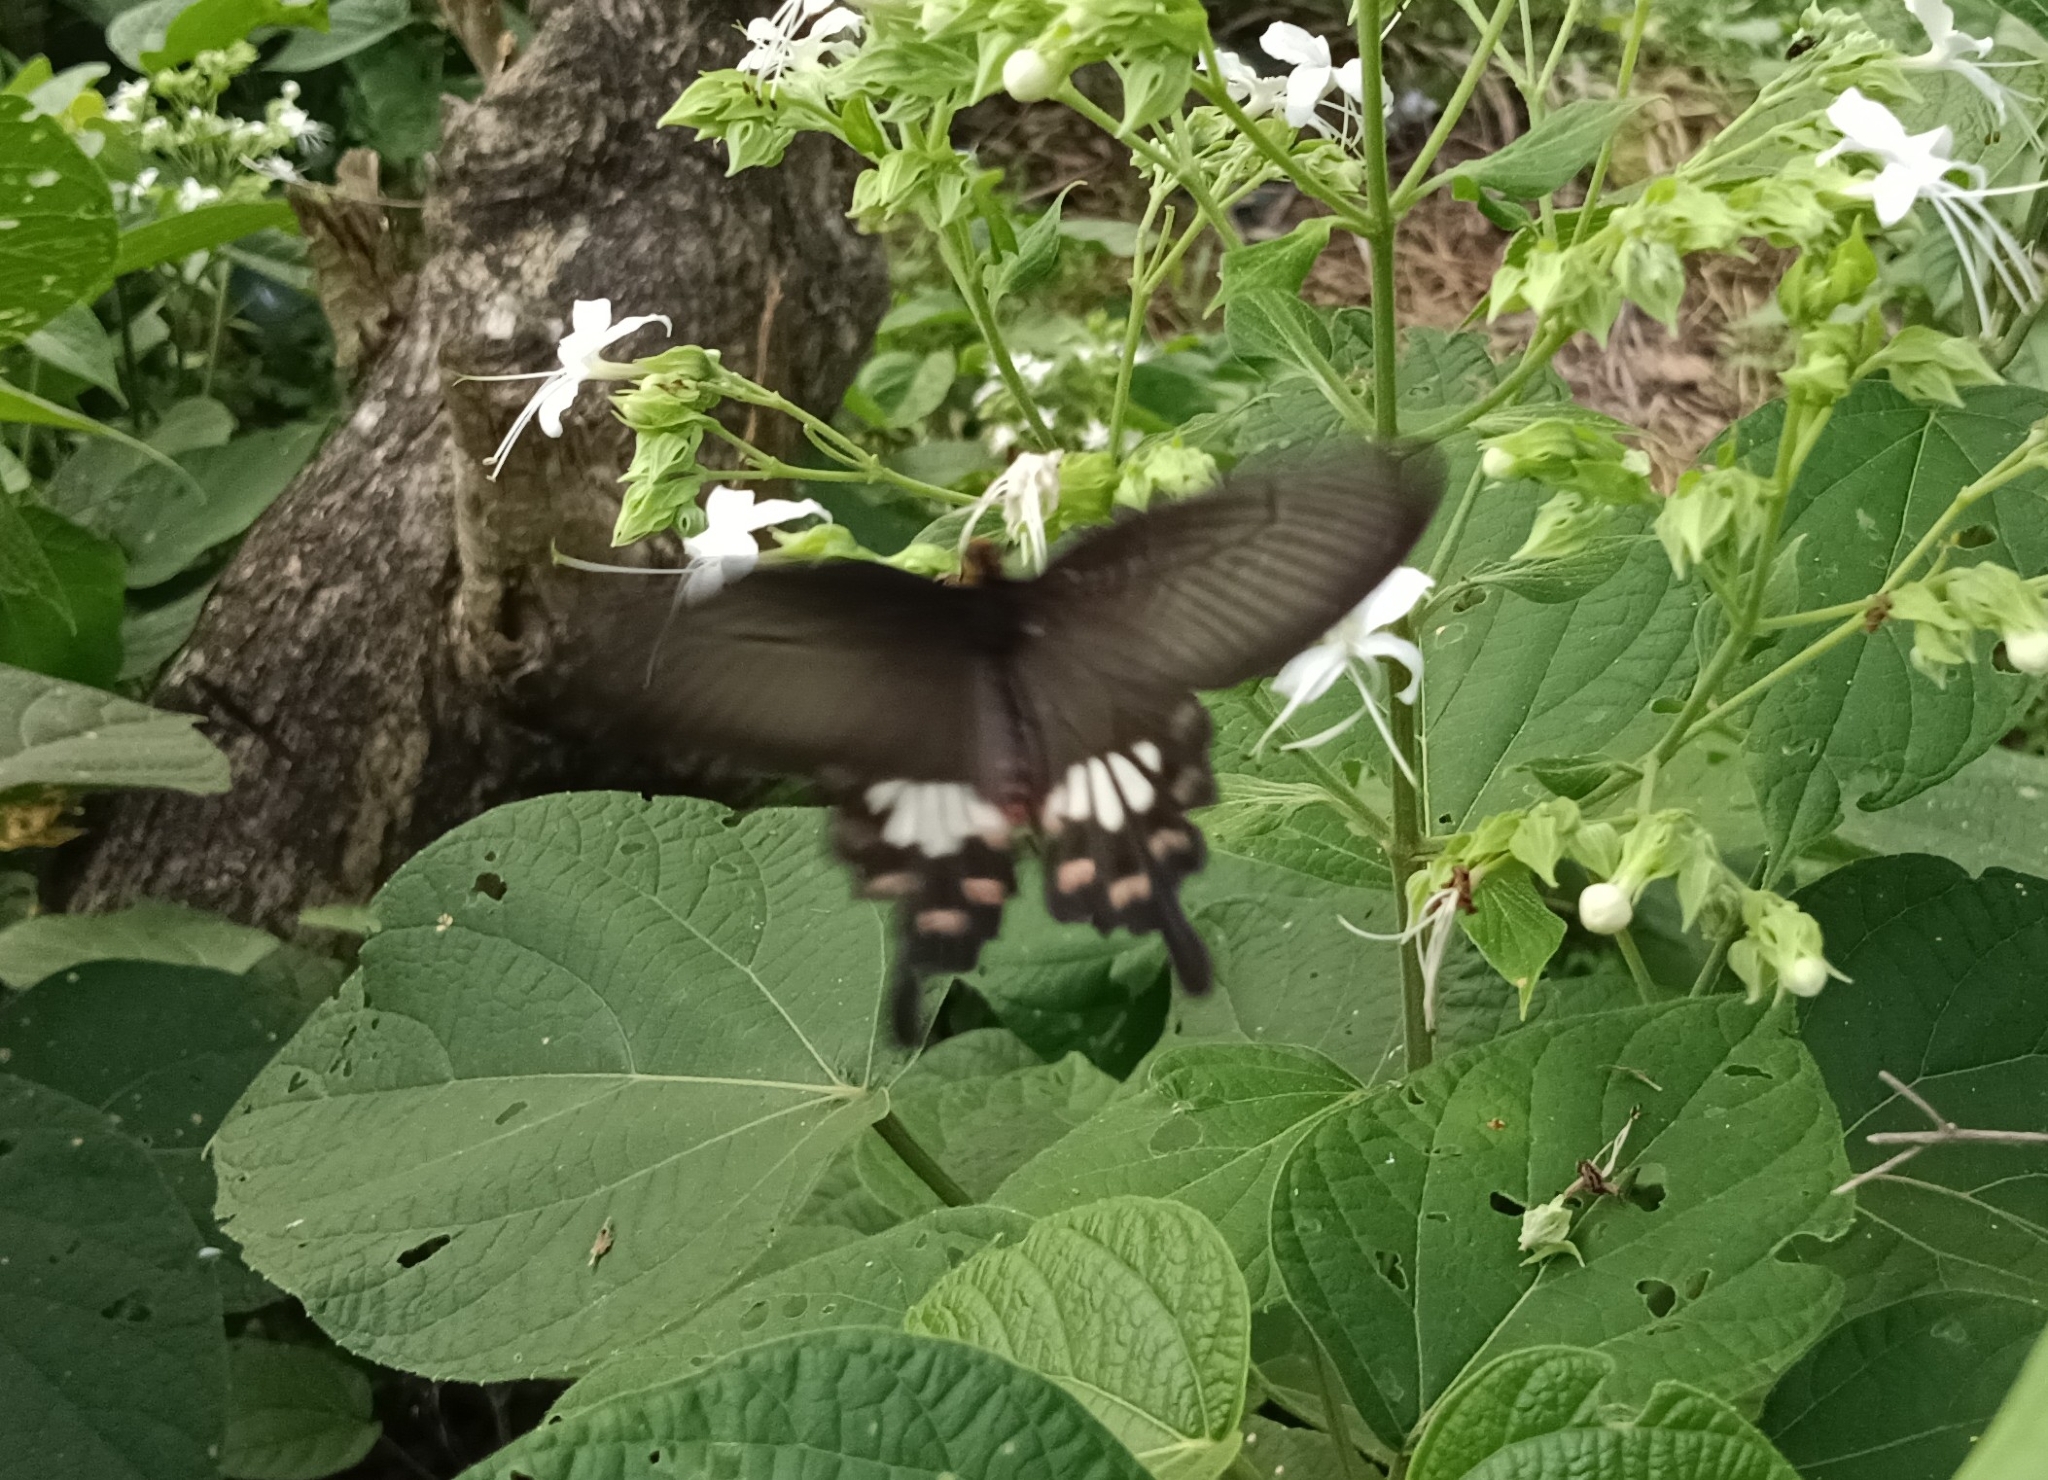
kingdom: Animalia
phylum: Arthropoda
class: Insecta
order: Lepidoptera
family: Papilionidae
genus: Pachliopta
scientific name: Pachliopta aristolochiae
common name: Common rose
